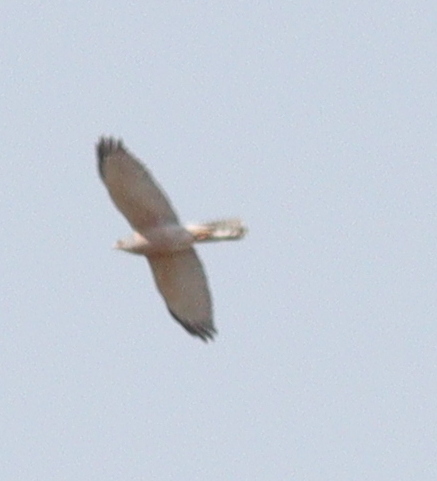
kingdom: Animalia
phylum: Chordata
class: Aves
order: Accipitriformes
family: Accipitridae
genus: Accipiter
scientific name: Accipiter badius
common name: Shikra
